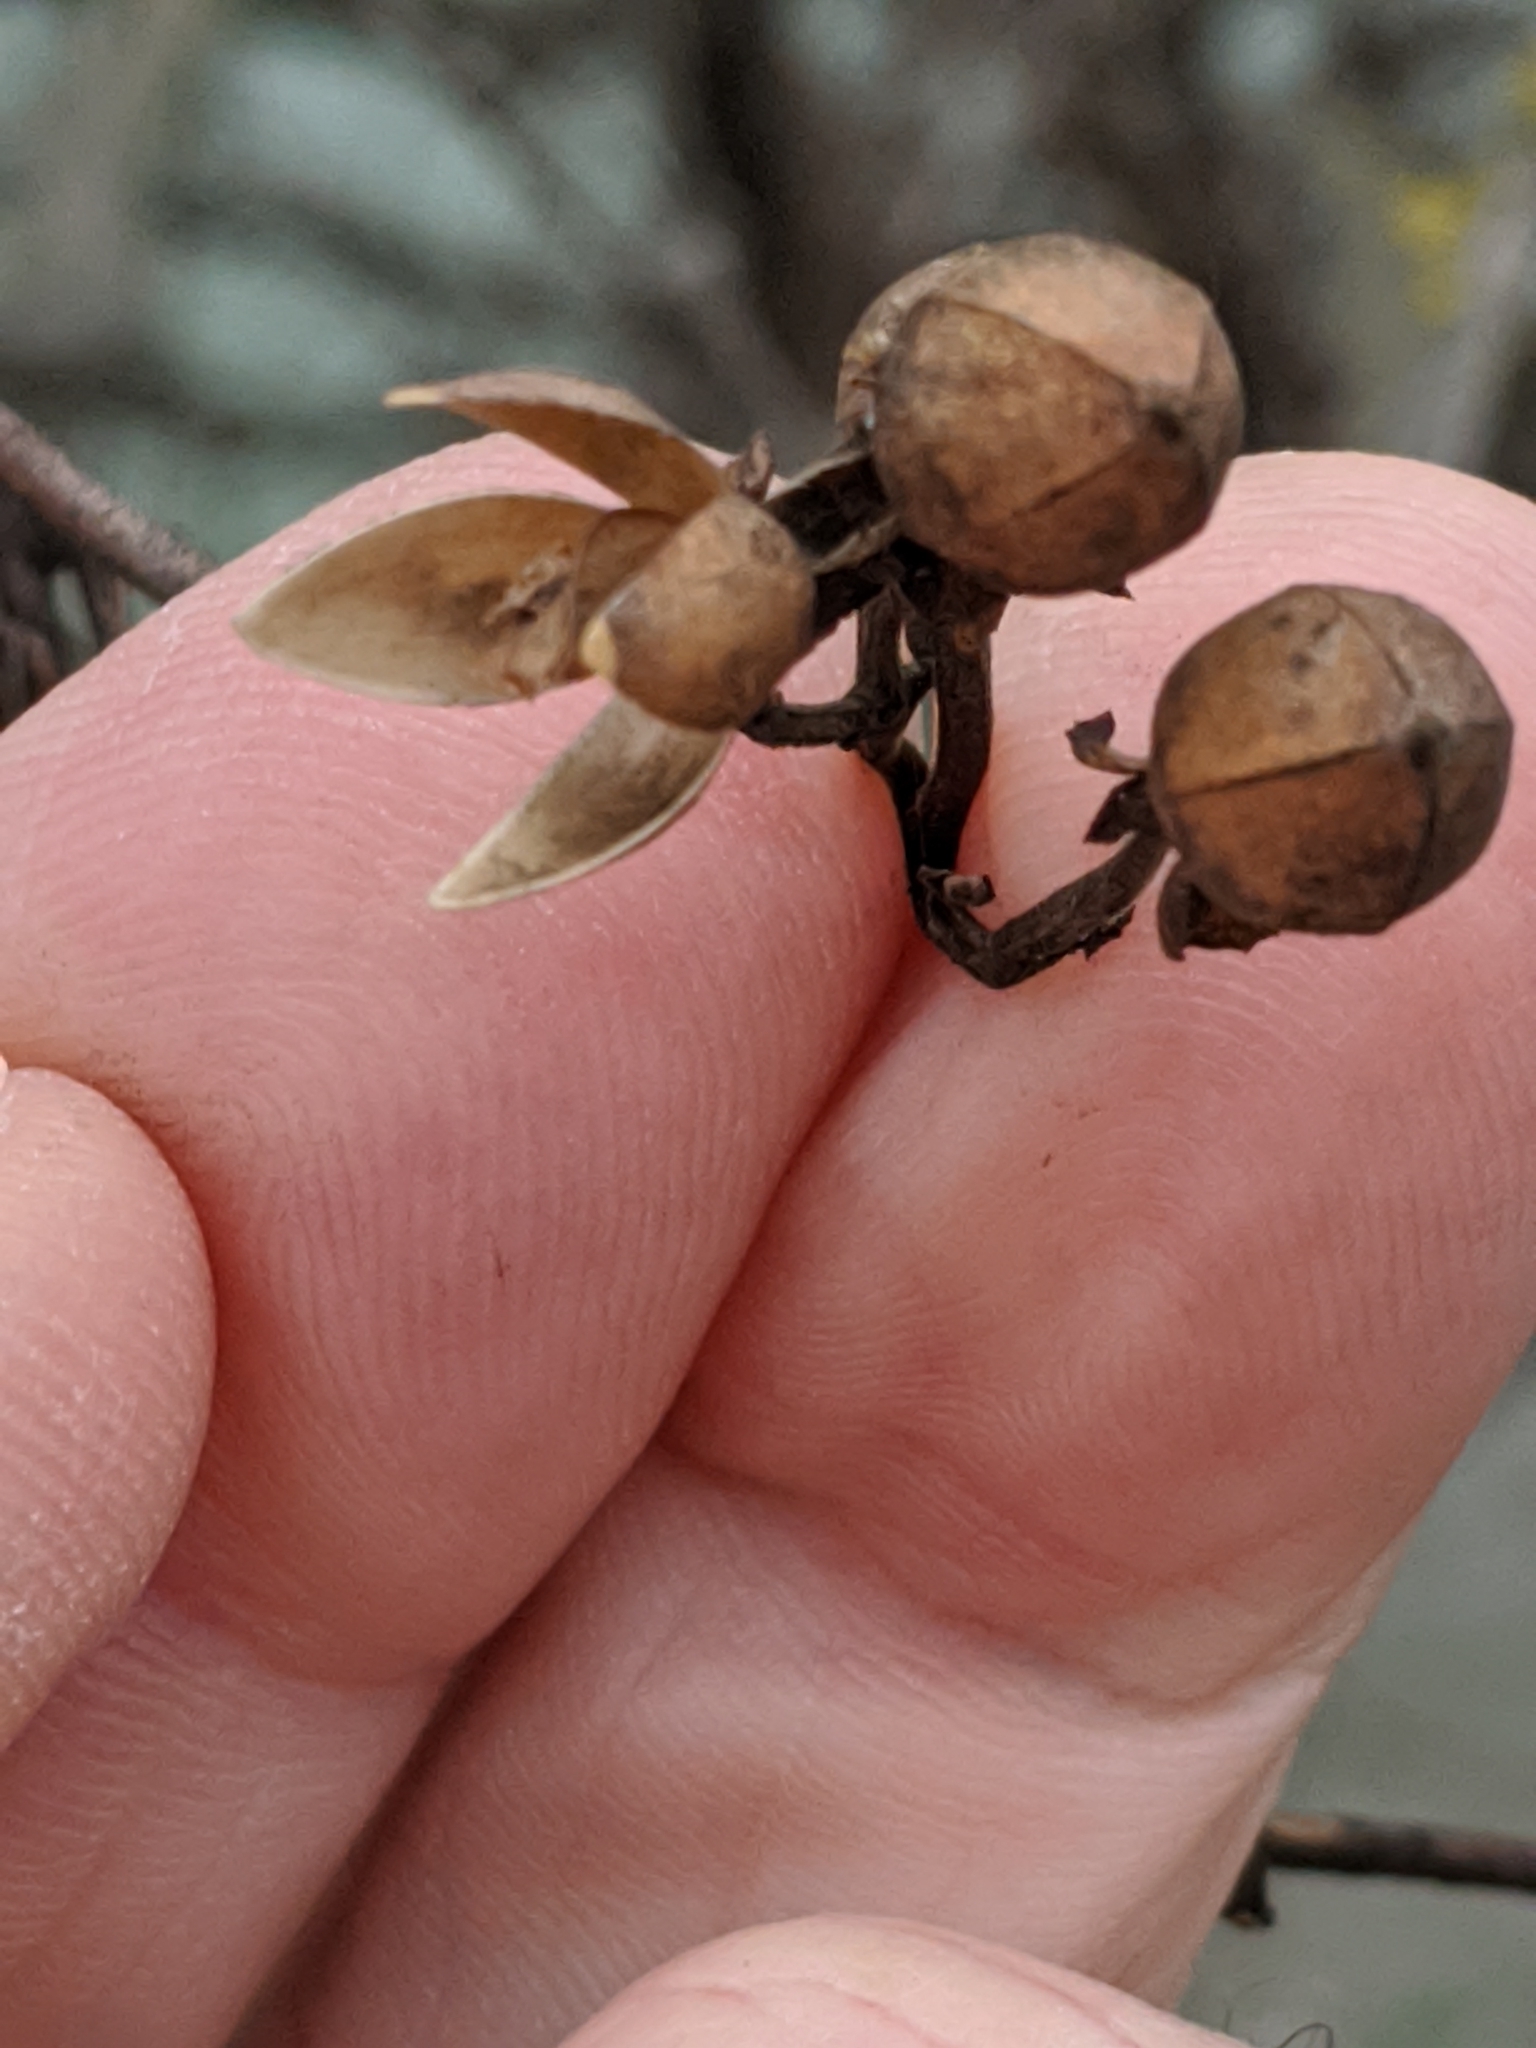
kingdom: Plantae
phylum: Tracheophyta
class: Magnoliopsida
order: Solanales
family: Convolvulaceae
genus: Ipomoea
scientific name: Ipomoea amnicola
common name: Redcenter morning-glory
